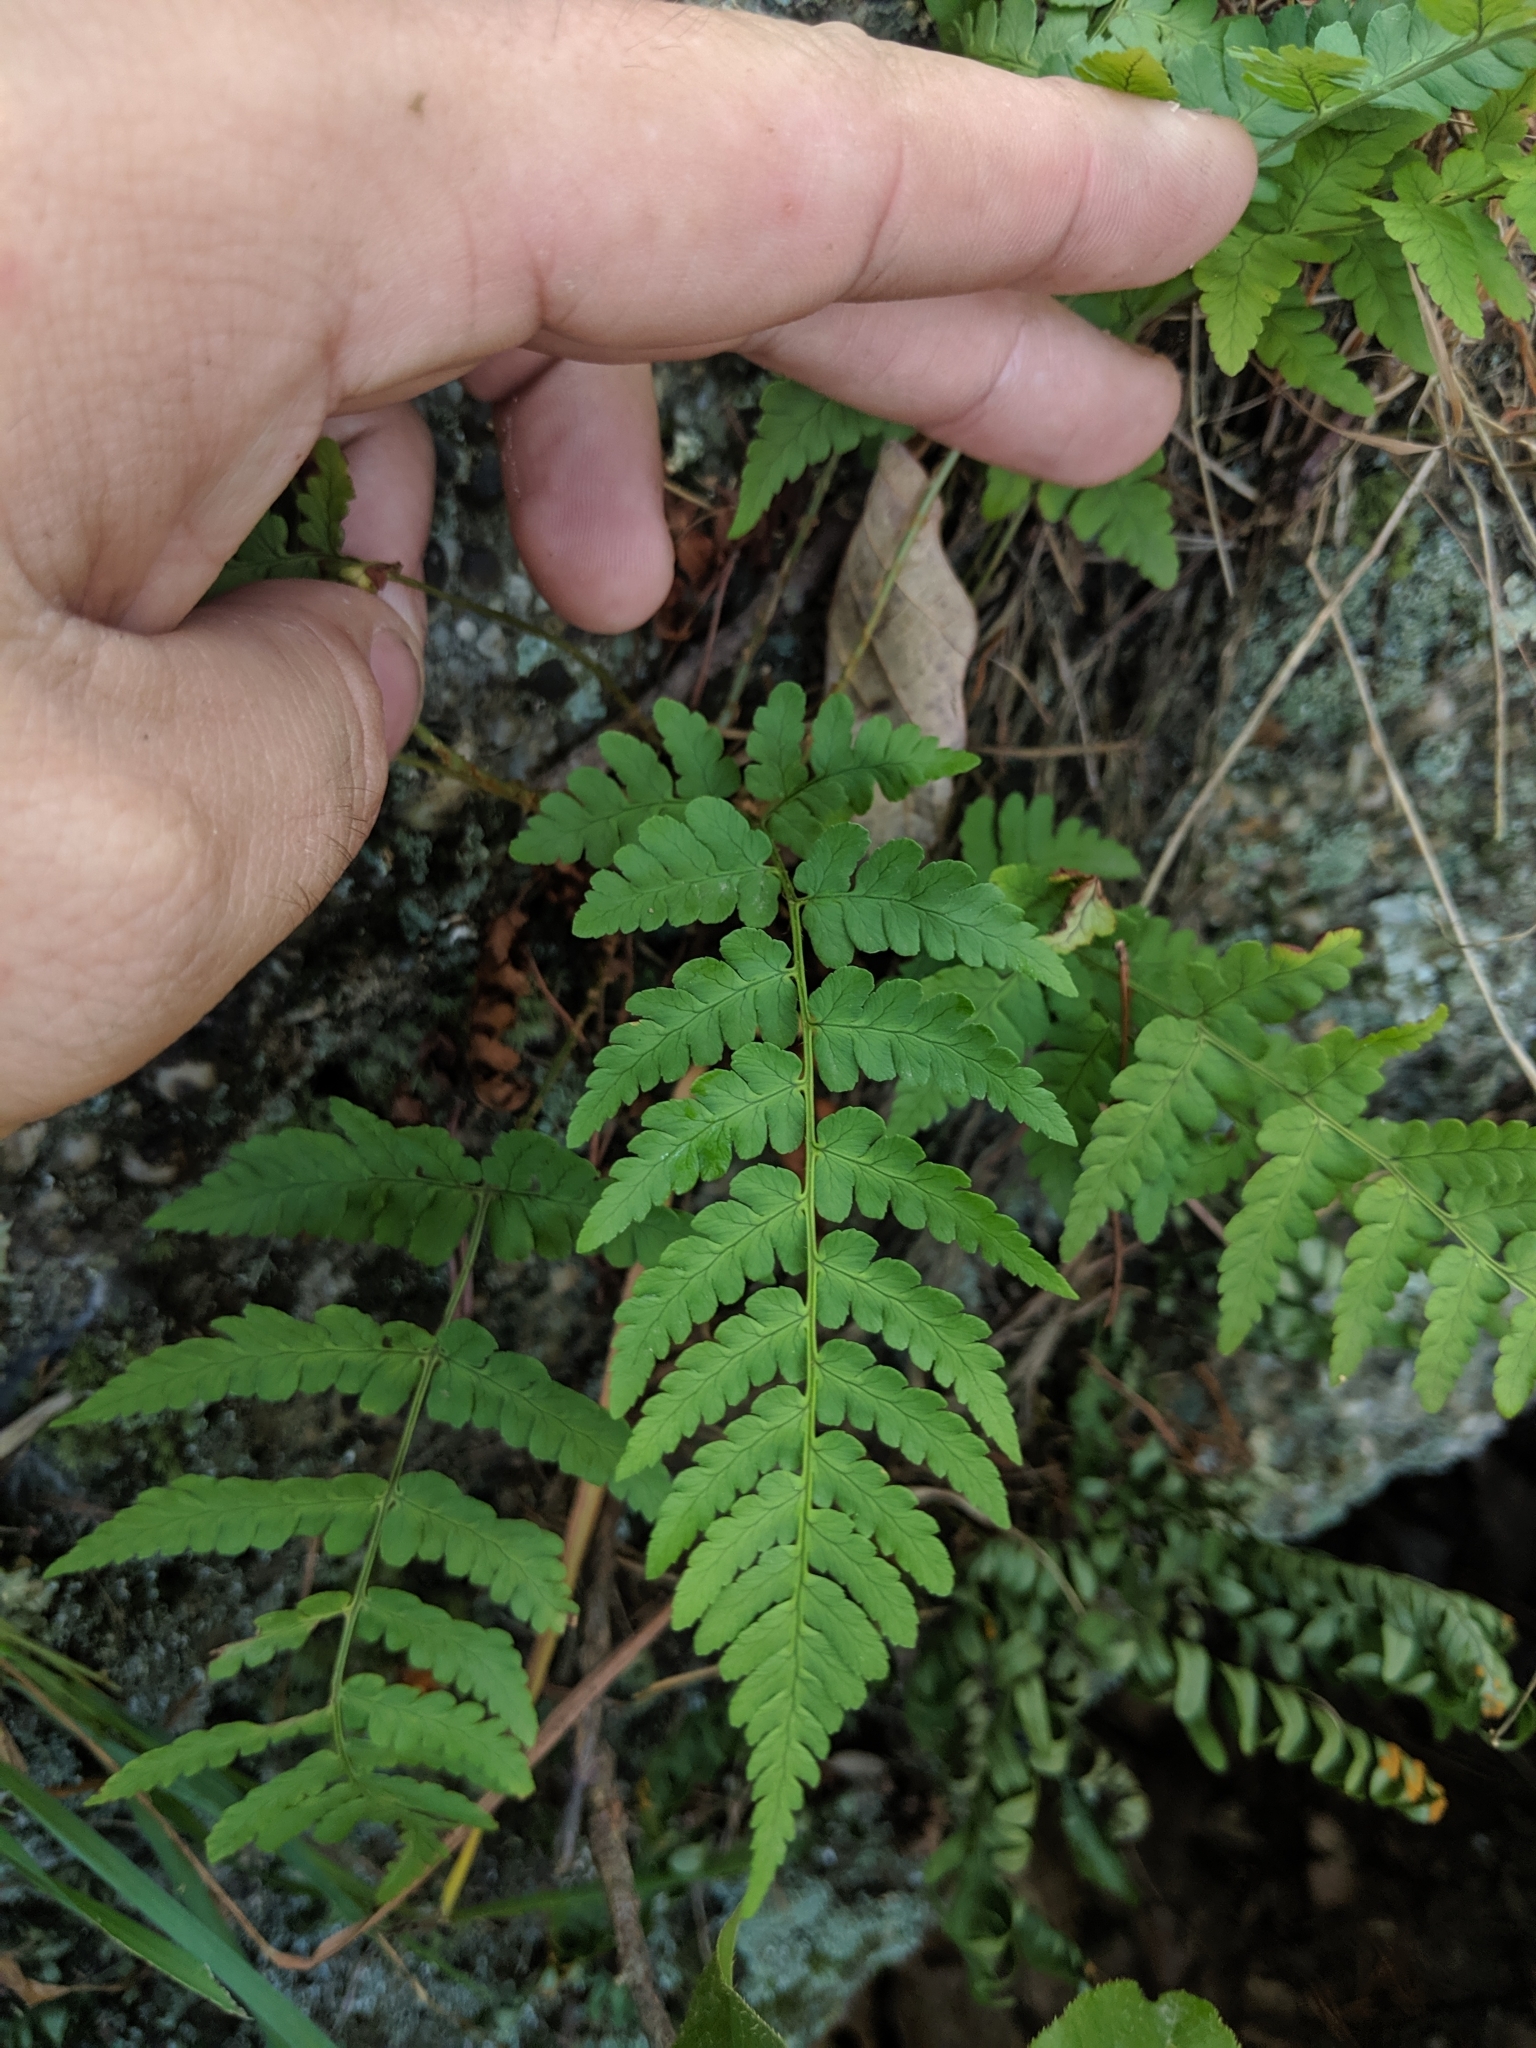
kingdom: Plantae
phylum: Tracheophyta
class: Polypodiopsida
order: Polypodiales
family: Dryopteridaceae
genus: Dryopteris
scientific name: Dryopteris marginalis
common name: Marginal wood fern
